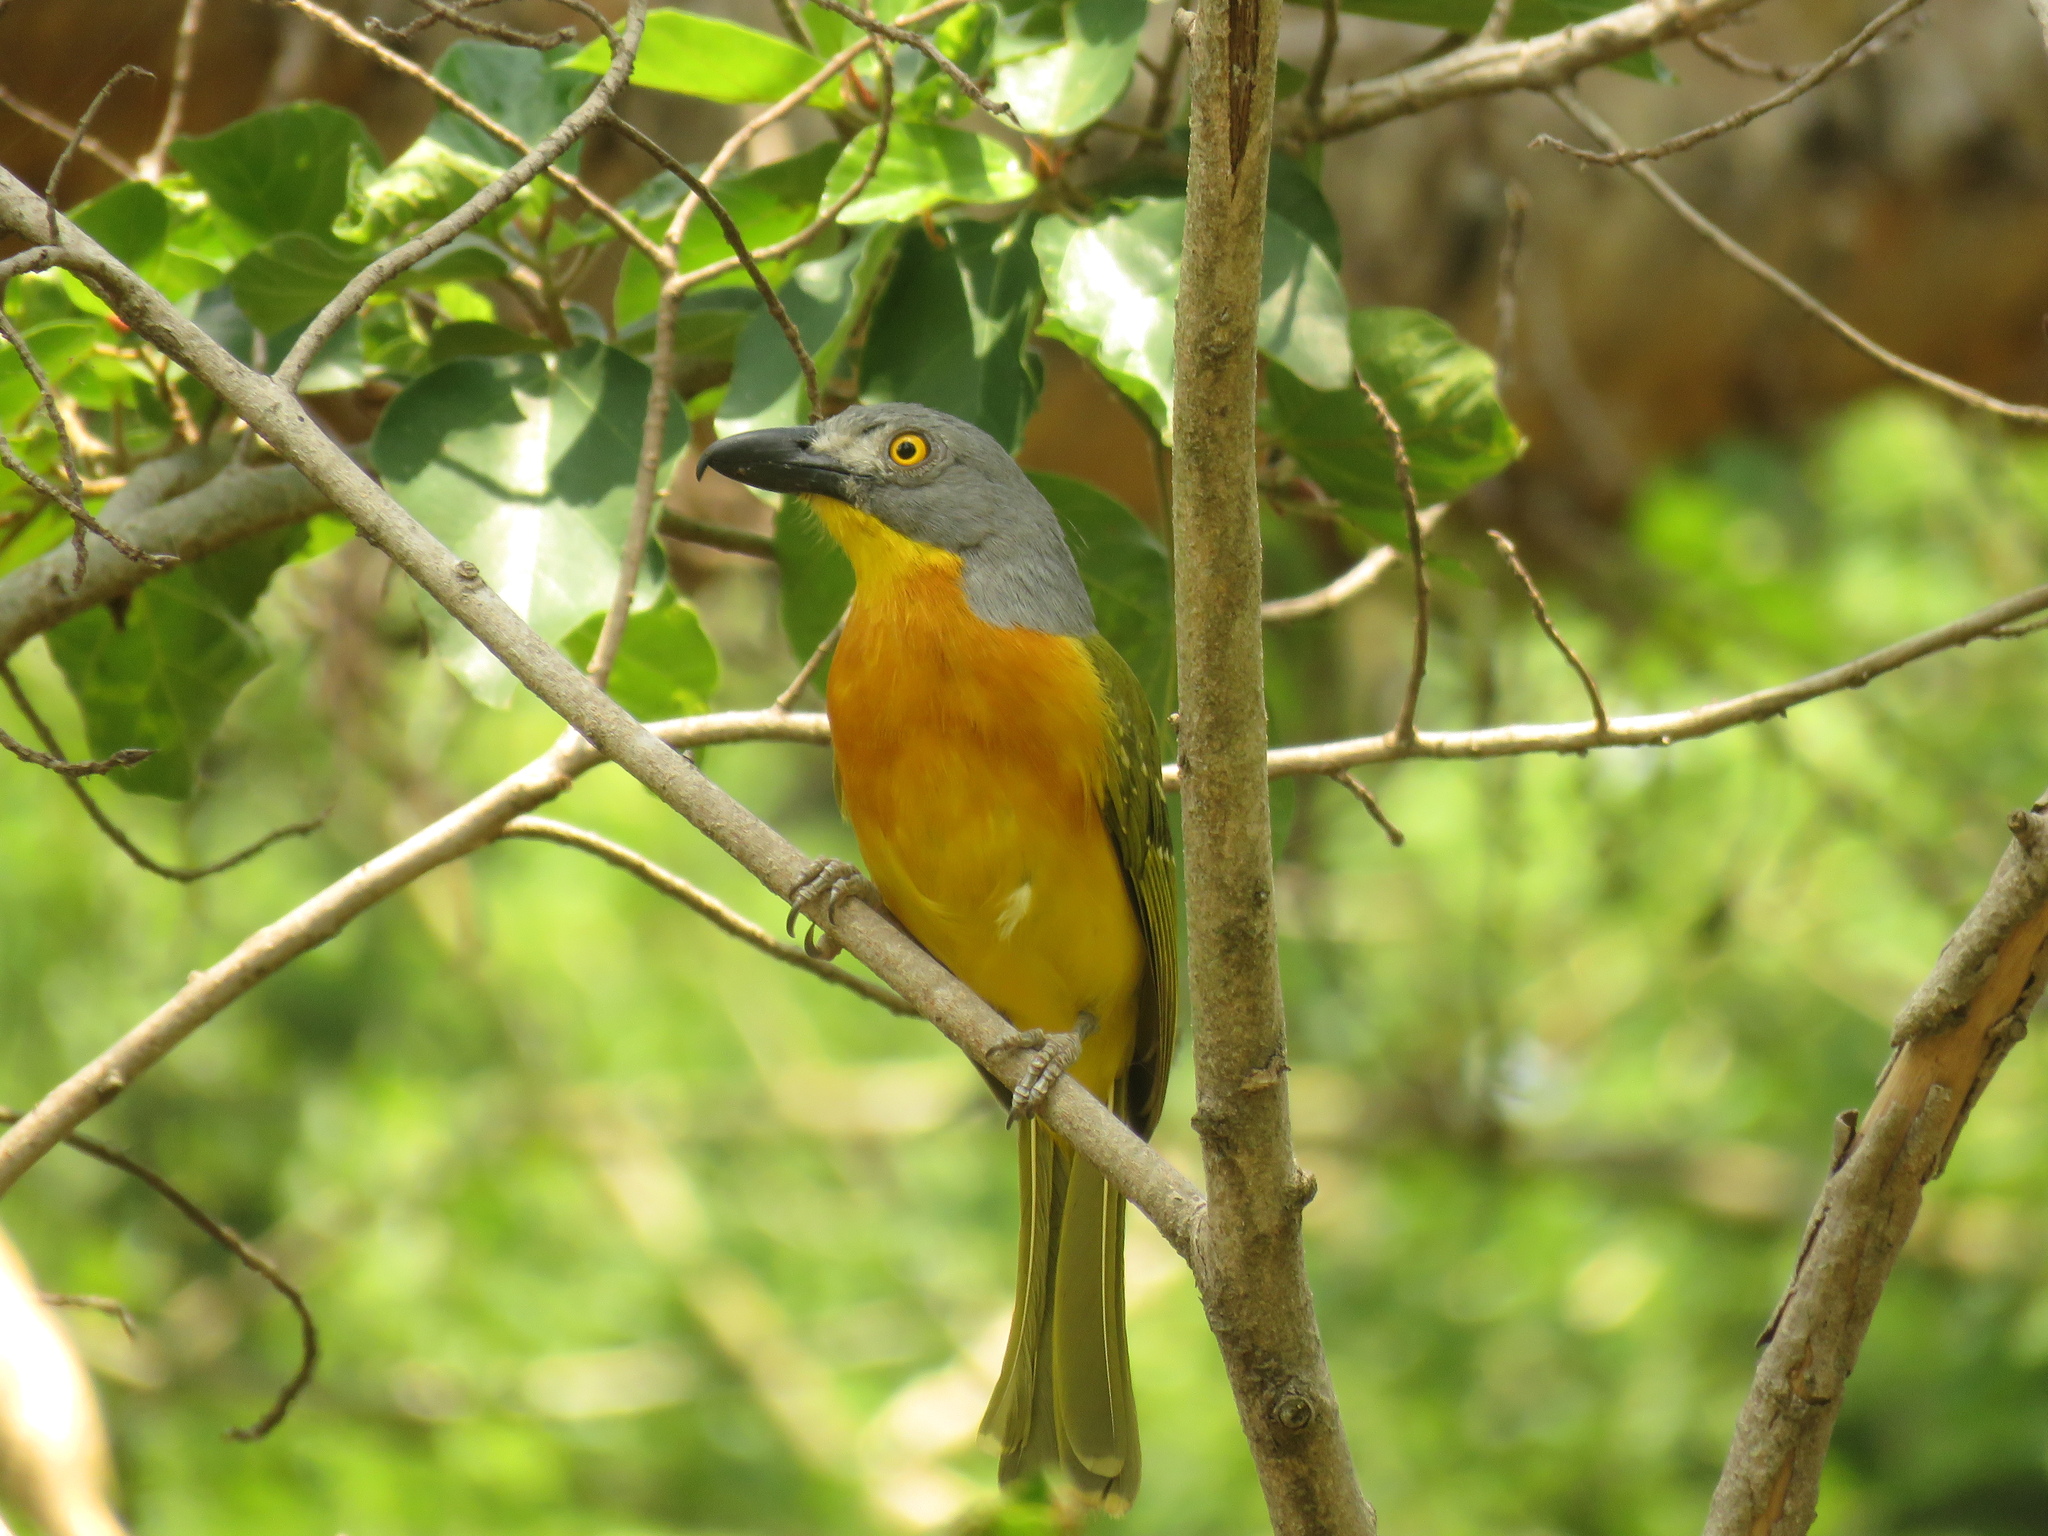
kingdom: Animalia
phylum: Chordata
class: Aves
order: Passeriformes
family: Malaconotidae
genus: Malaconotus
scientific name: Malaconotus blanchoti
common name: Grey-headed bushshrike
